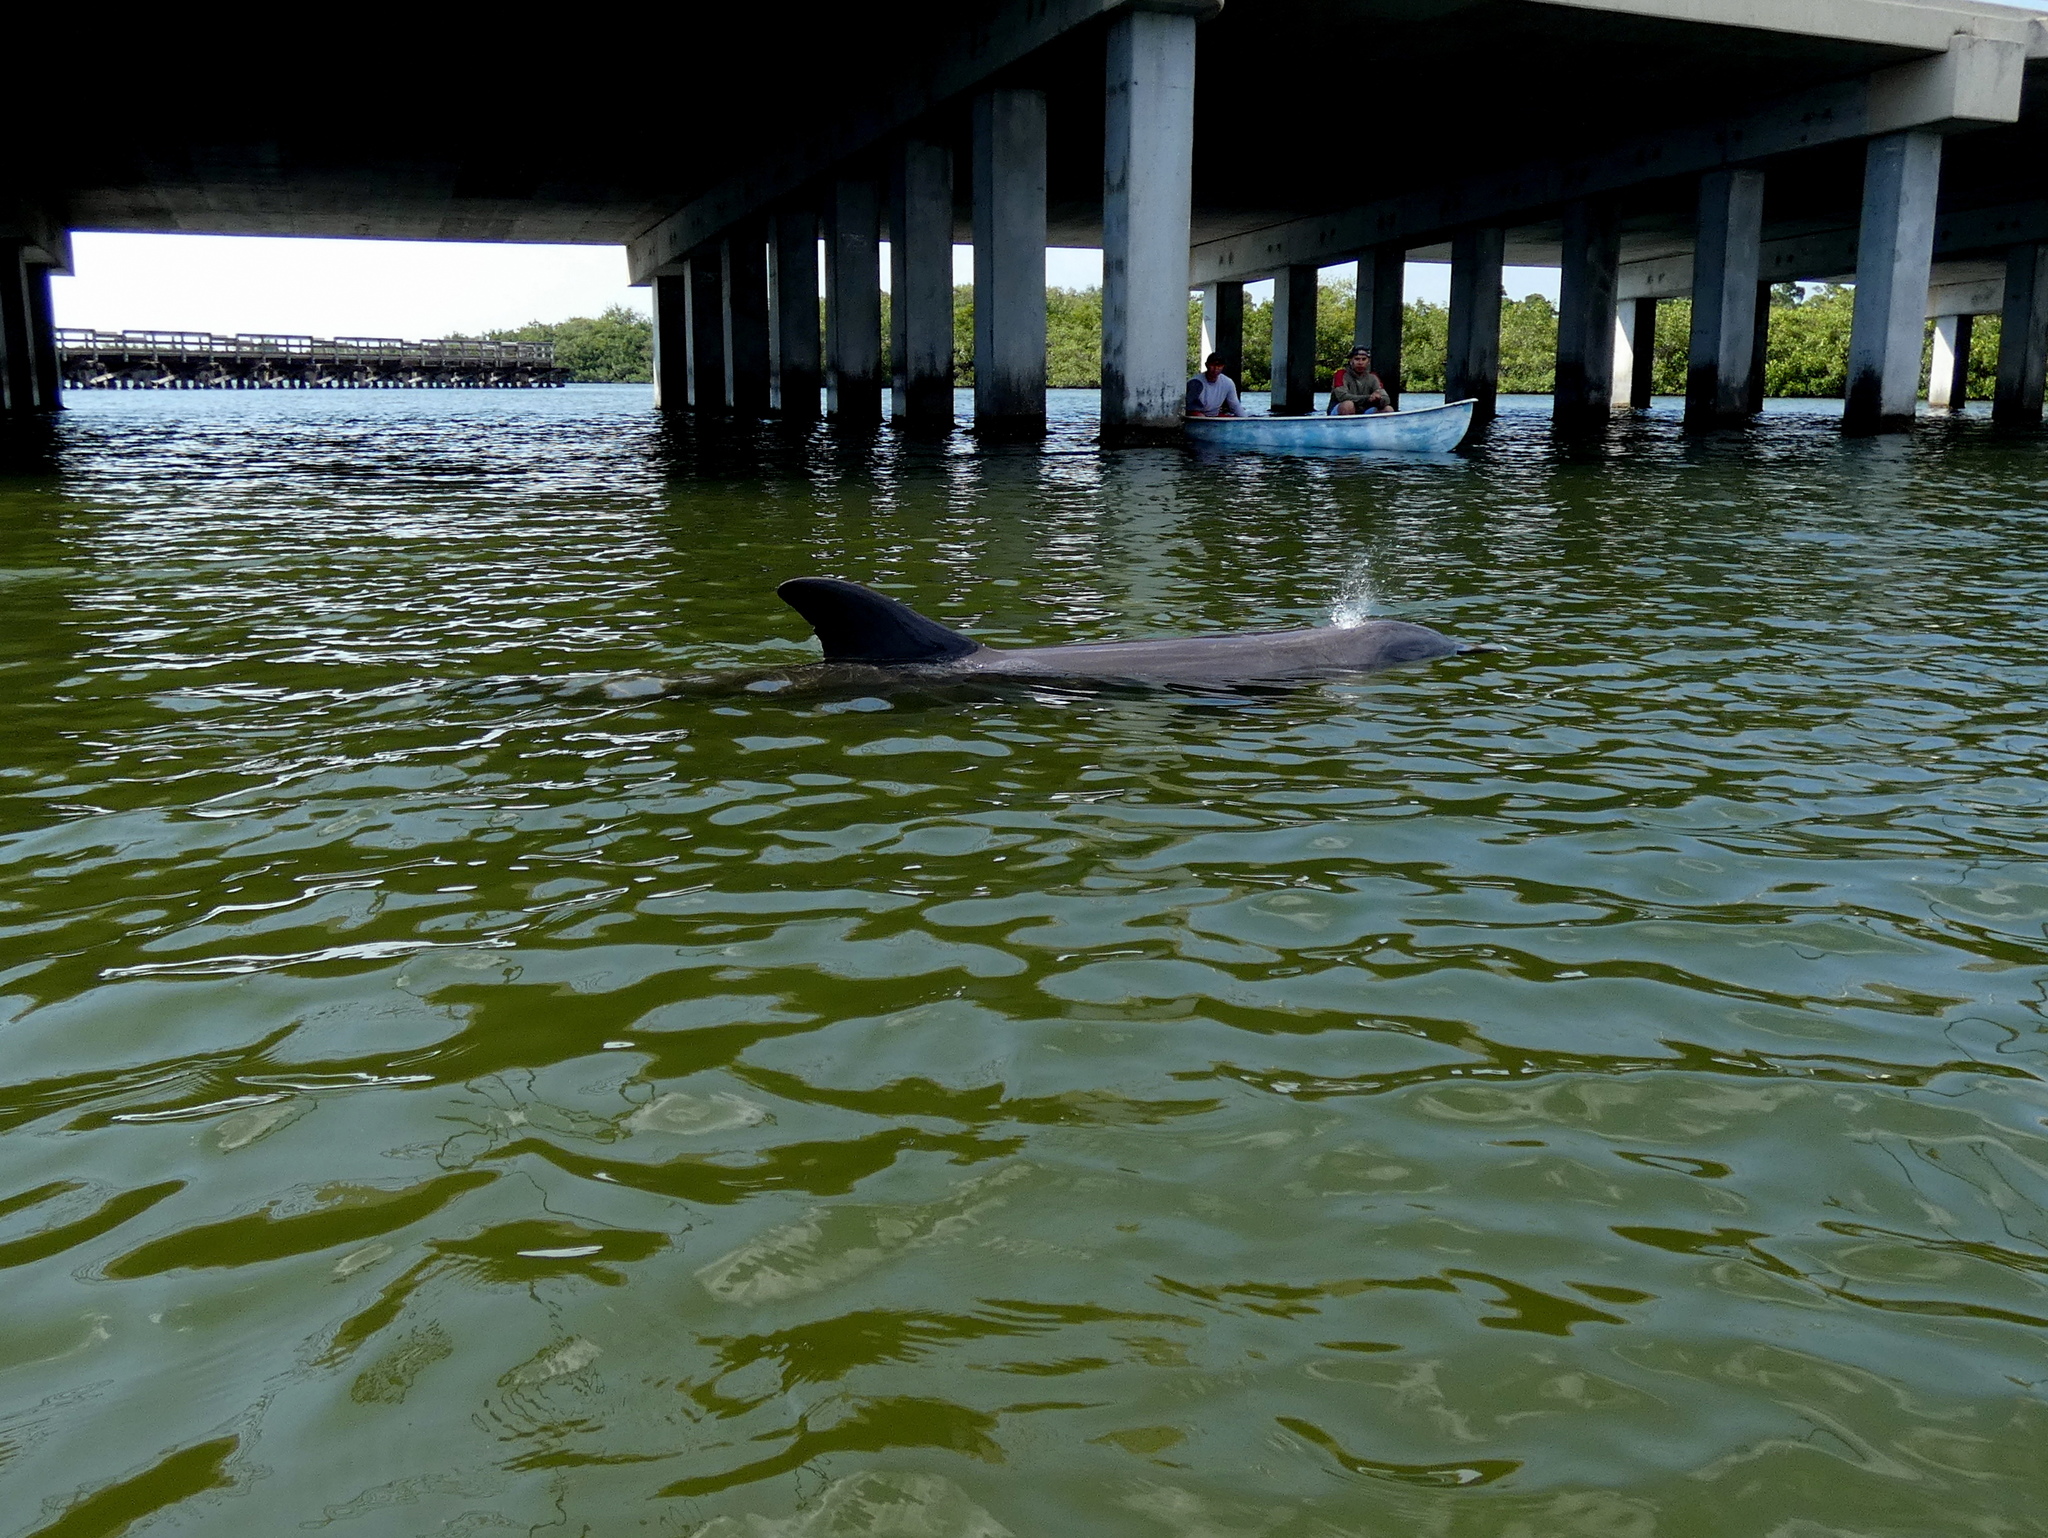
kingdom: Animalia
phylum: Chordata
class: Mammalia
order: Cetacea
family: Delphinidae
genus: Tursiops
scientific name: Tursiops truncatus
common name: Bottlenose dolphin
